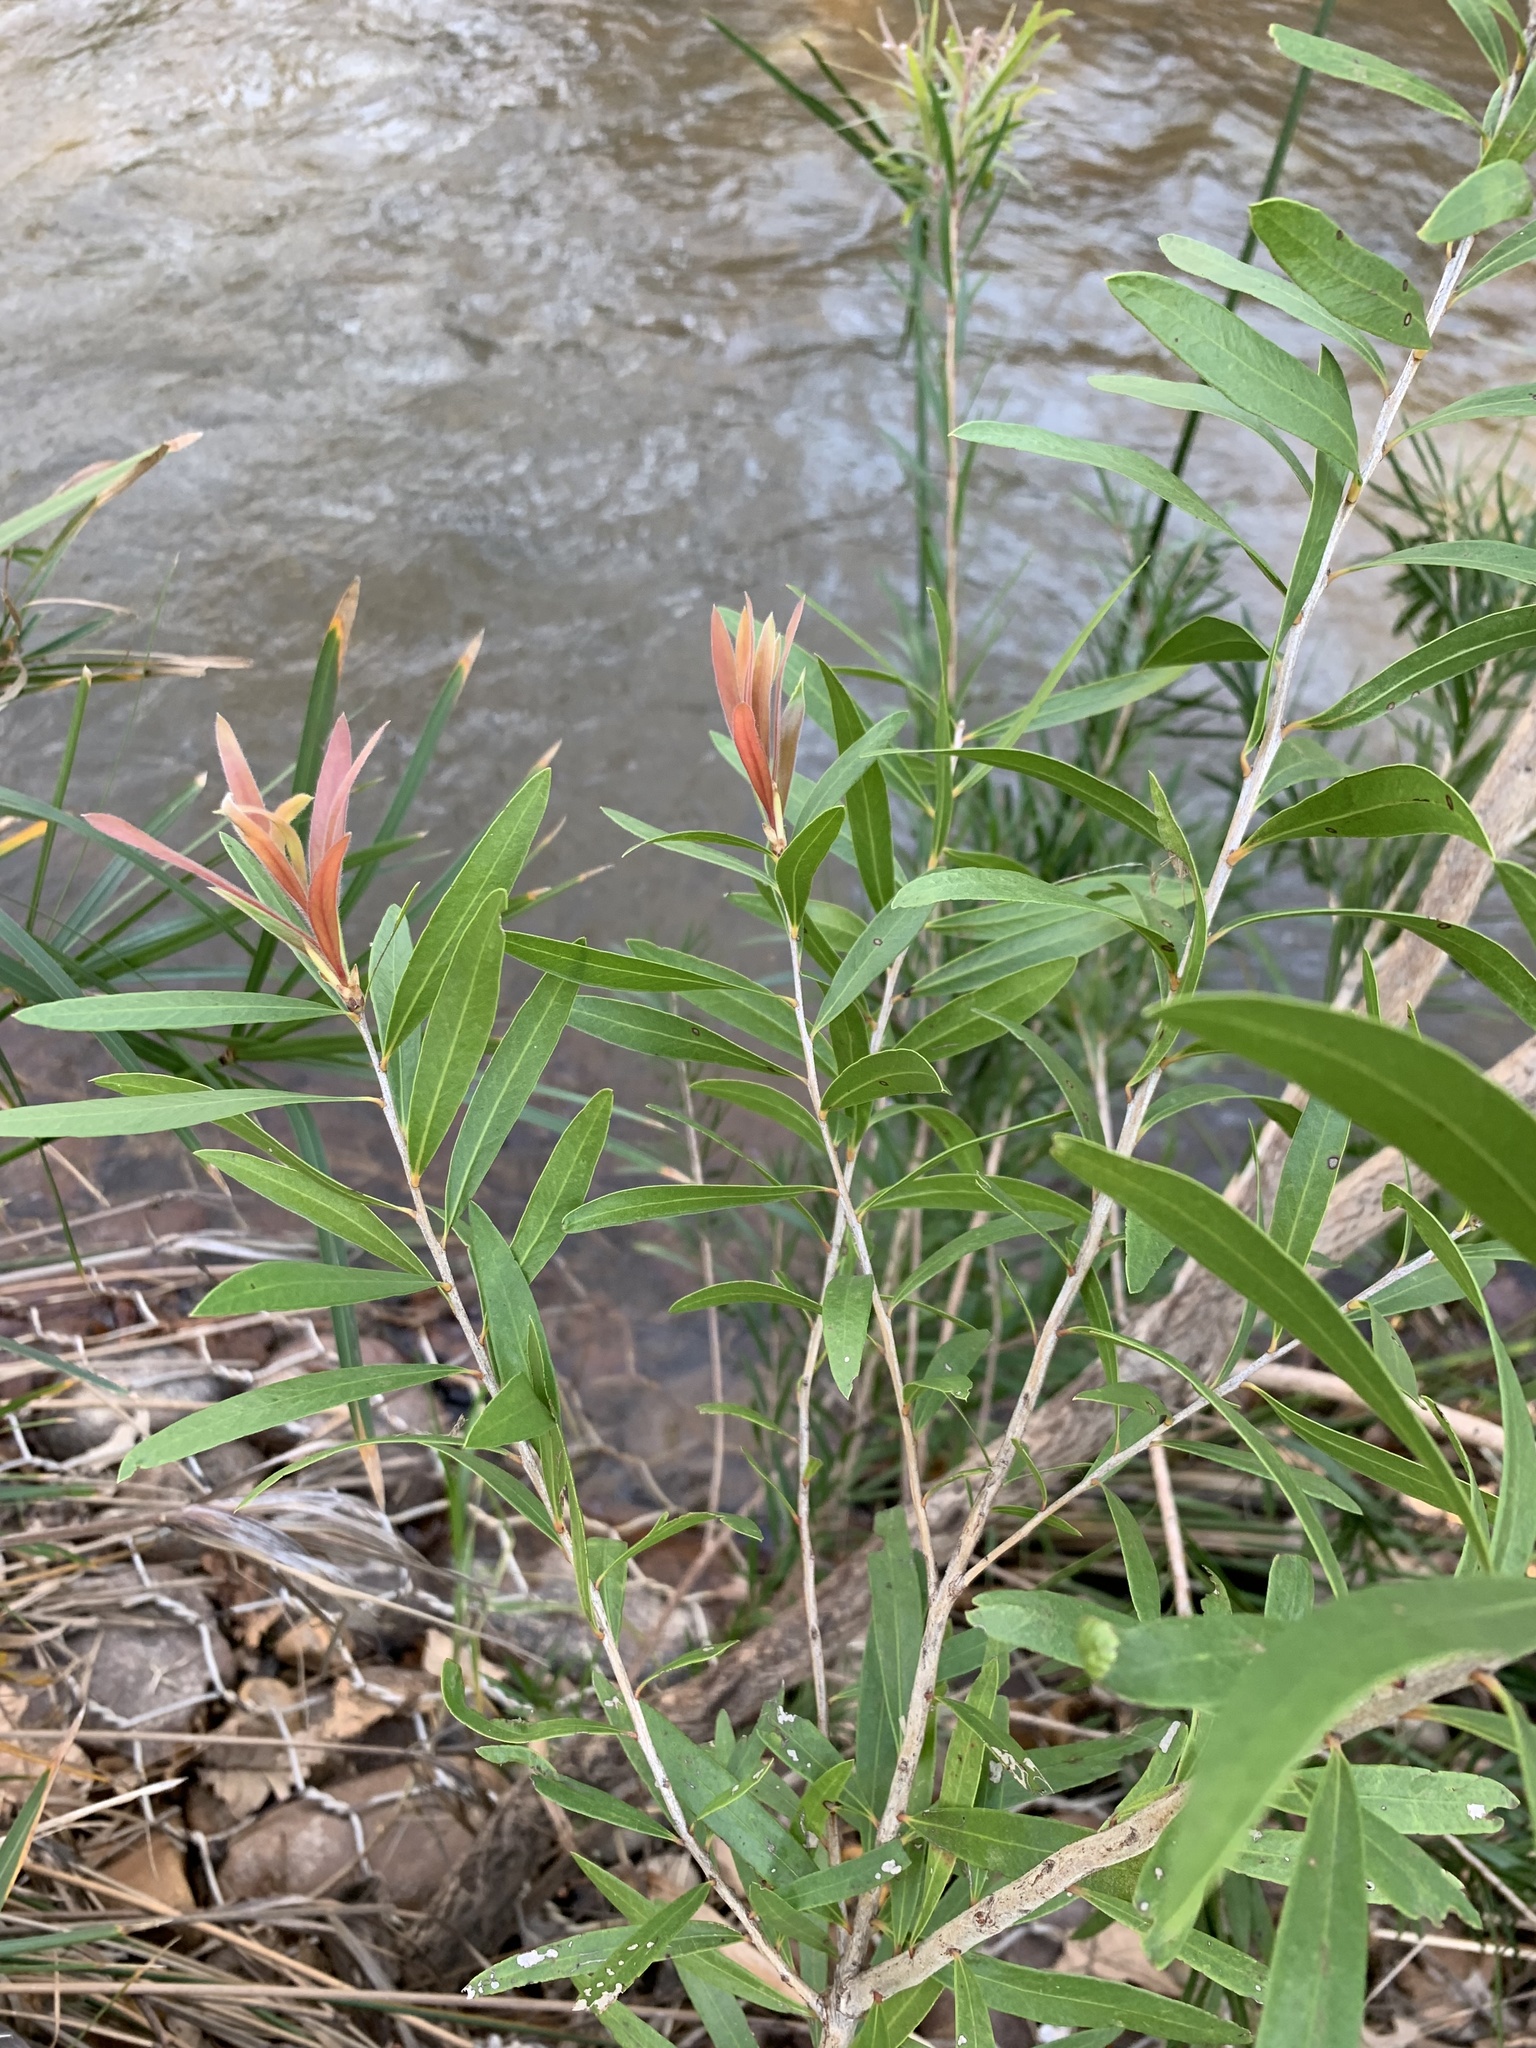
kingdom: Plantae
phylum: Tracheophyta
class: Magnoliopsida
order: Myrtales
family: Myrtaceae
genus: Callistemon
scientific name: Callistemon viminalis
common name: Drooping bottlebrush
